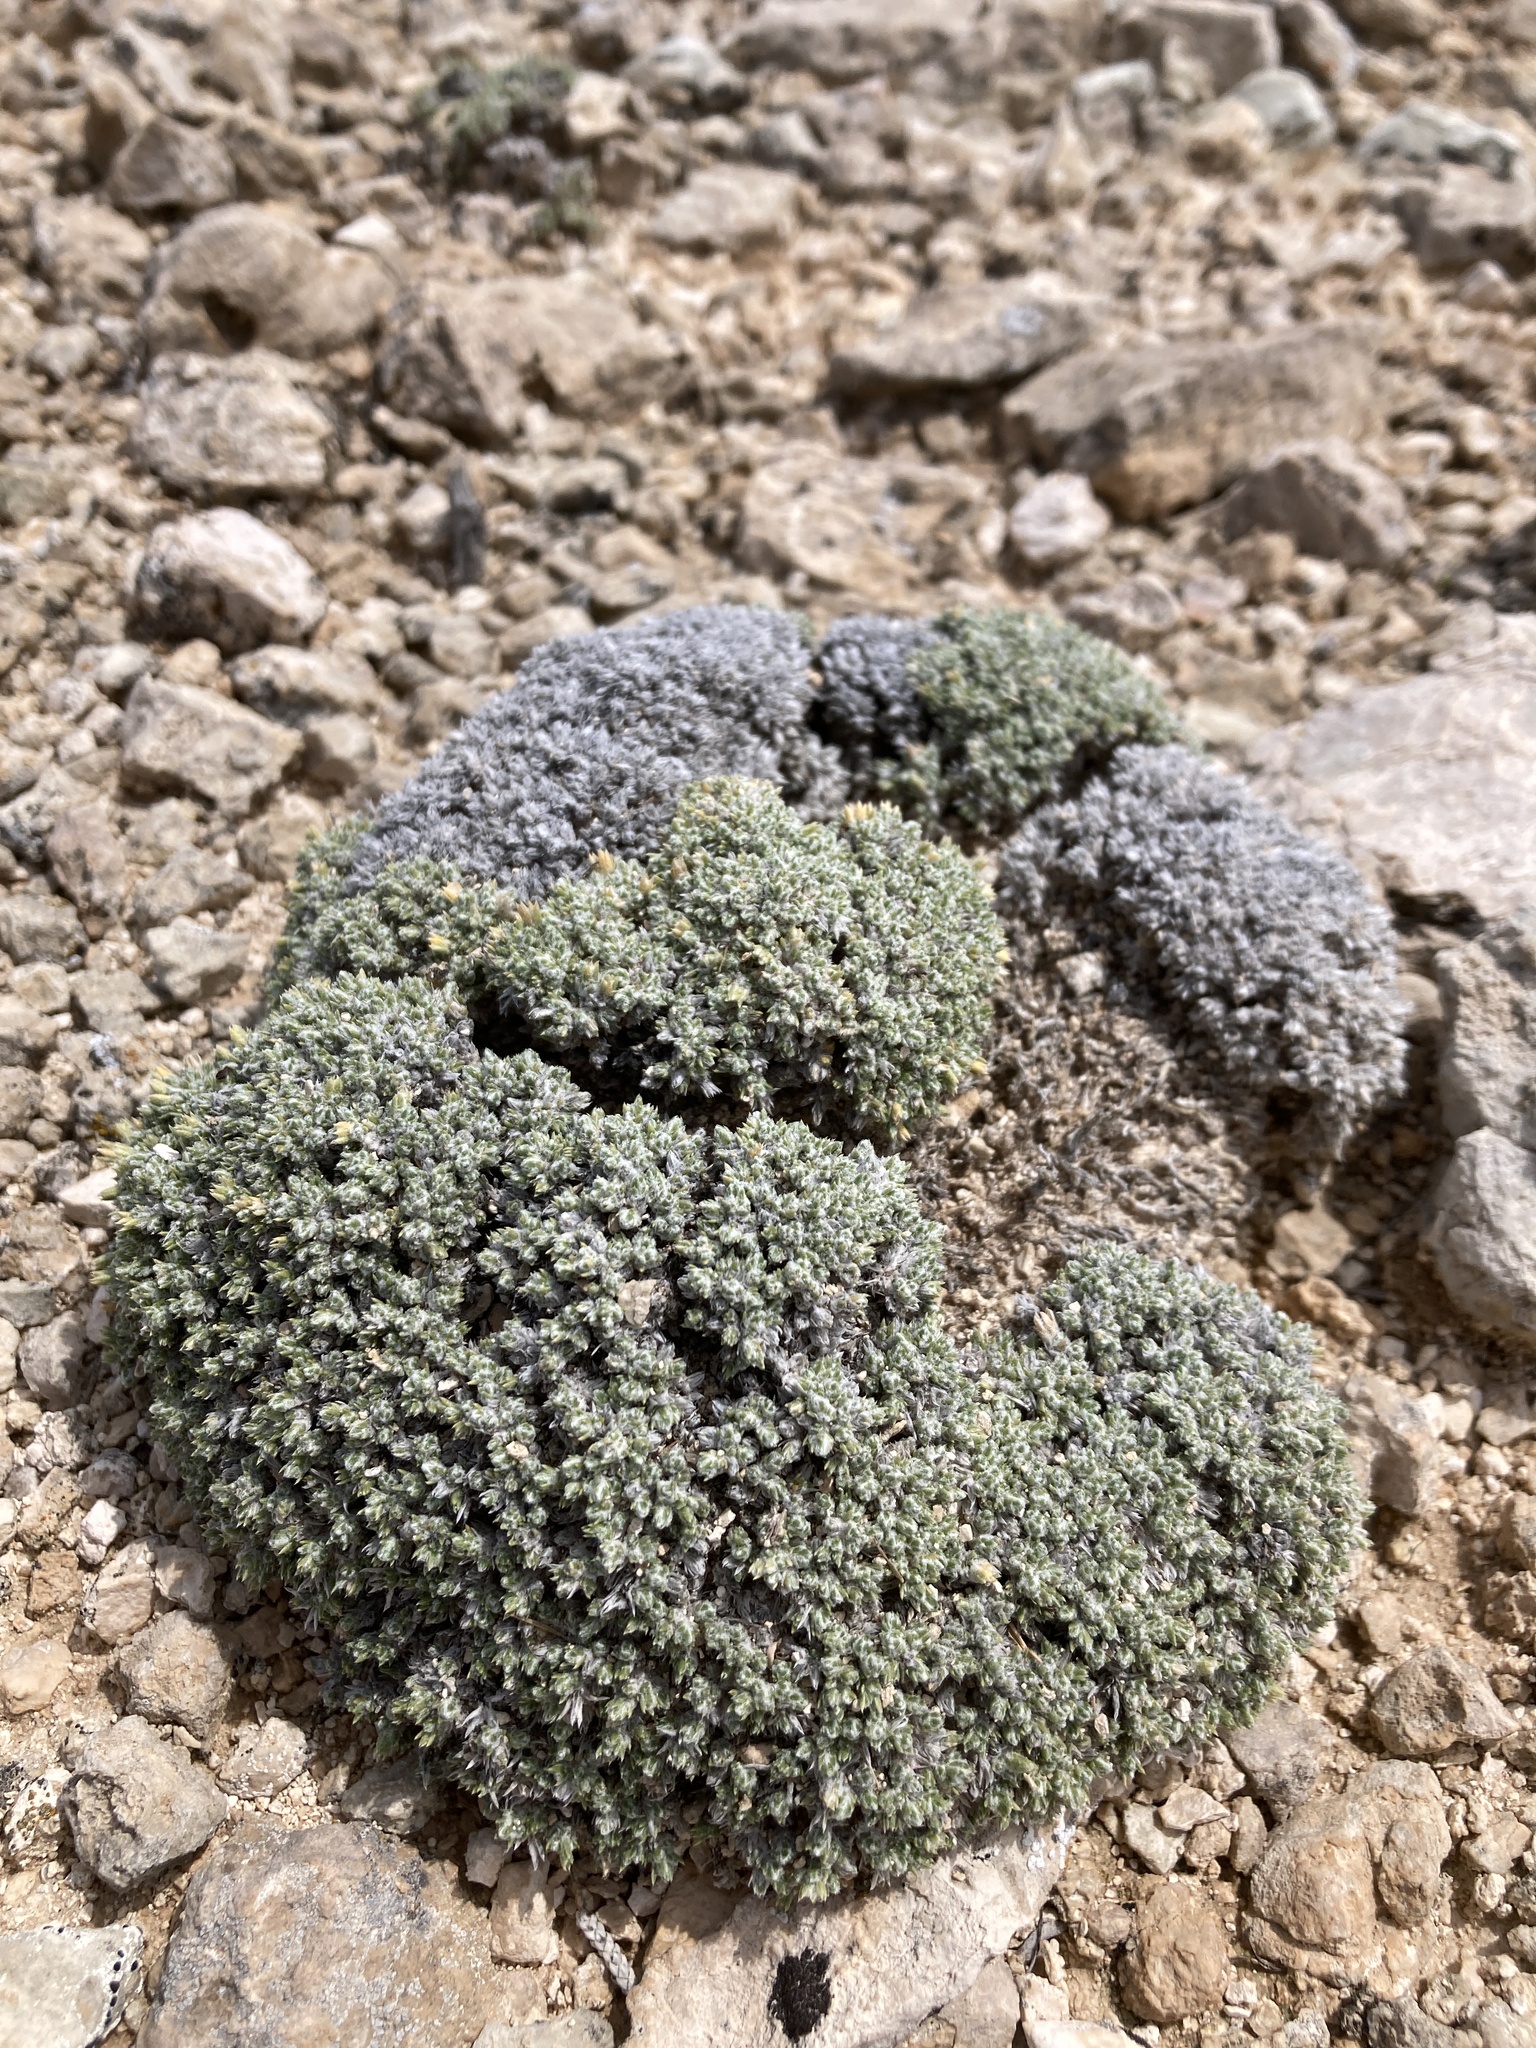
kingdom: Plantae
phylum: Tracheophyta
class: Magnoliopsida
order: Ericales
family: Polemoniaceae
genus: Phlox
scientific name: Phlox hoodii
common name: Moss phlox
